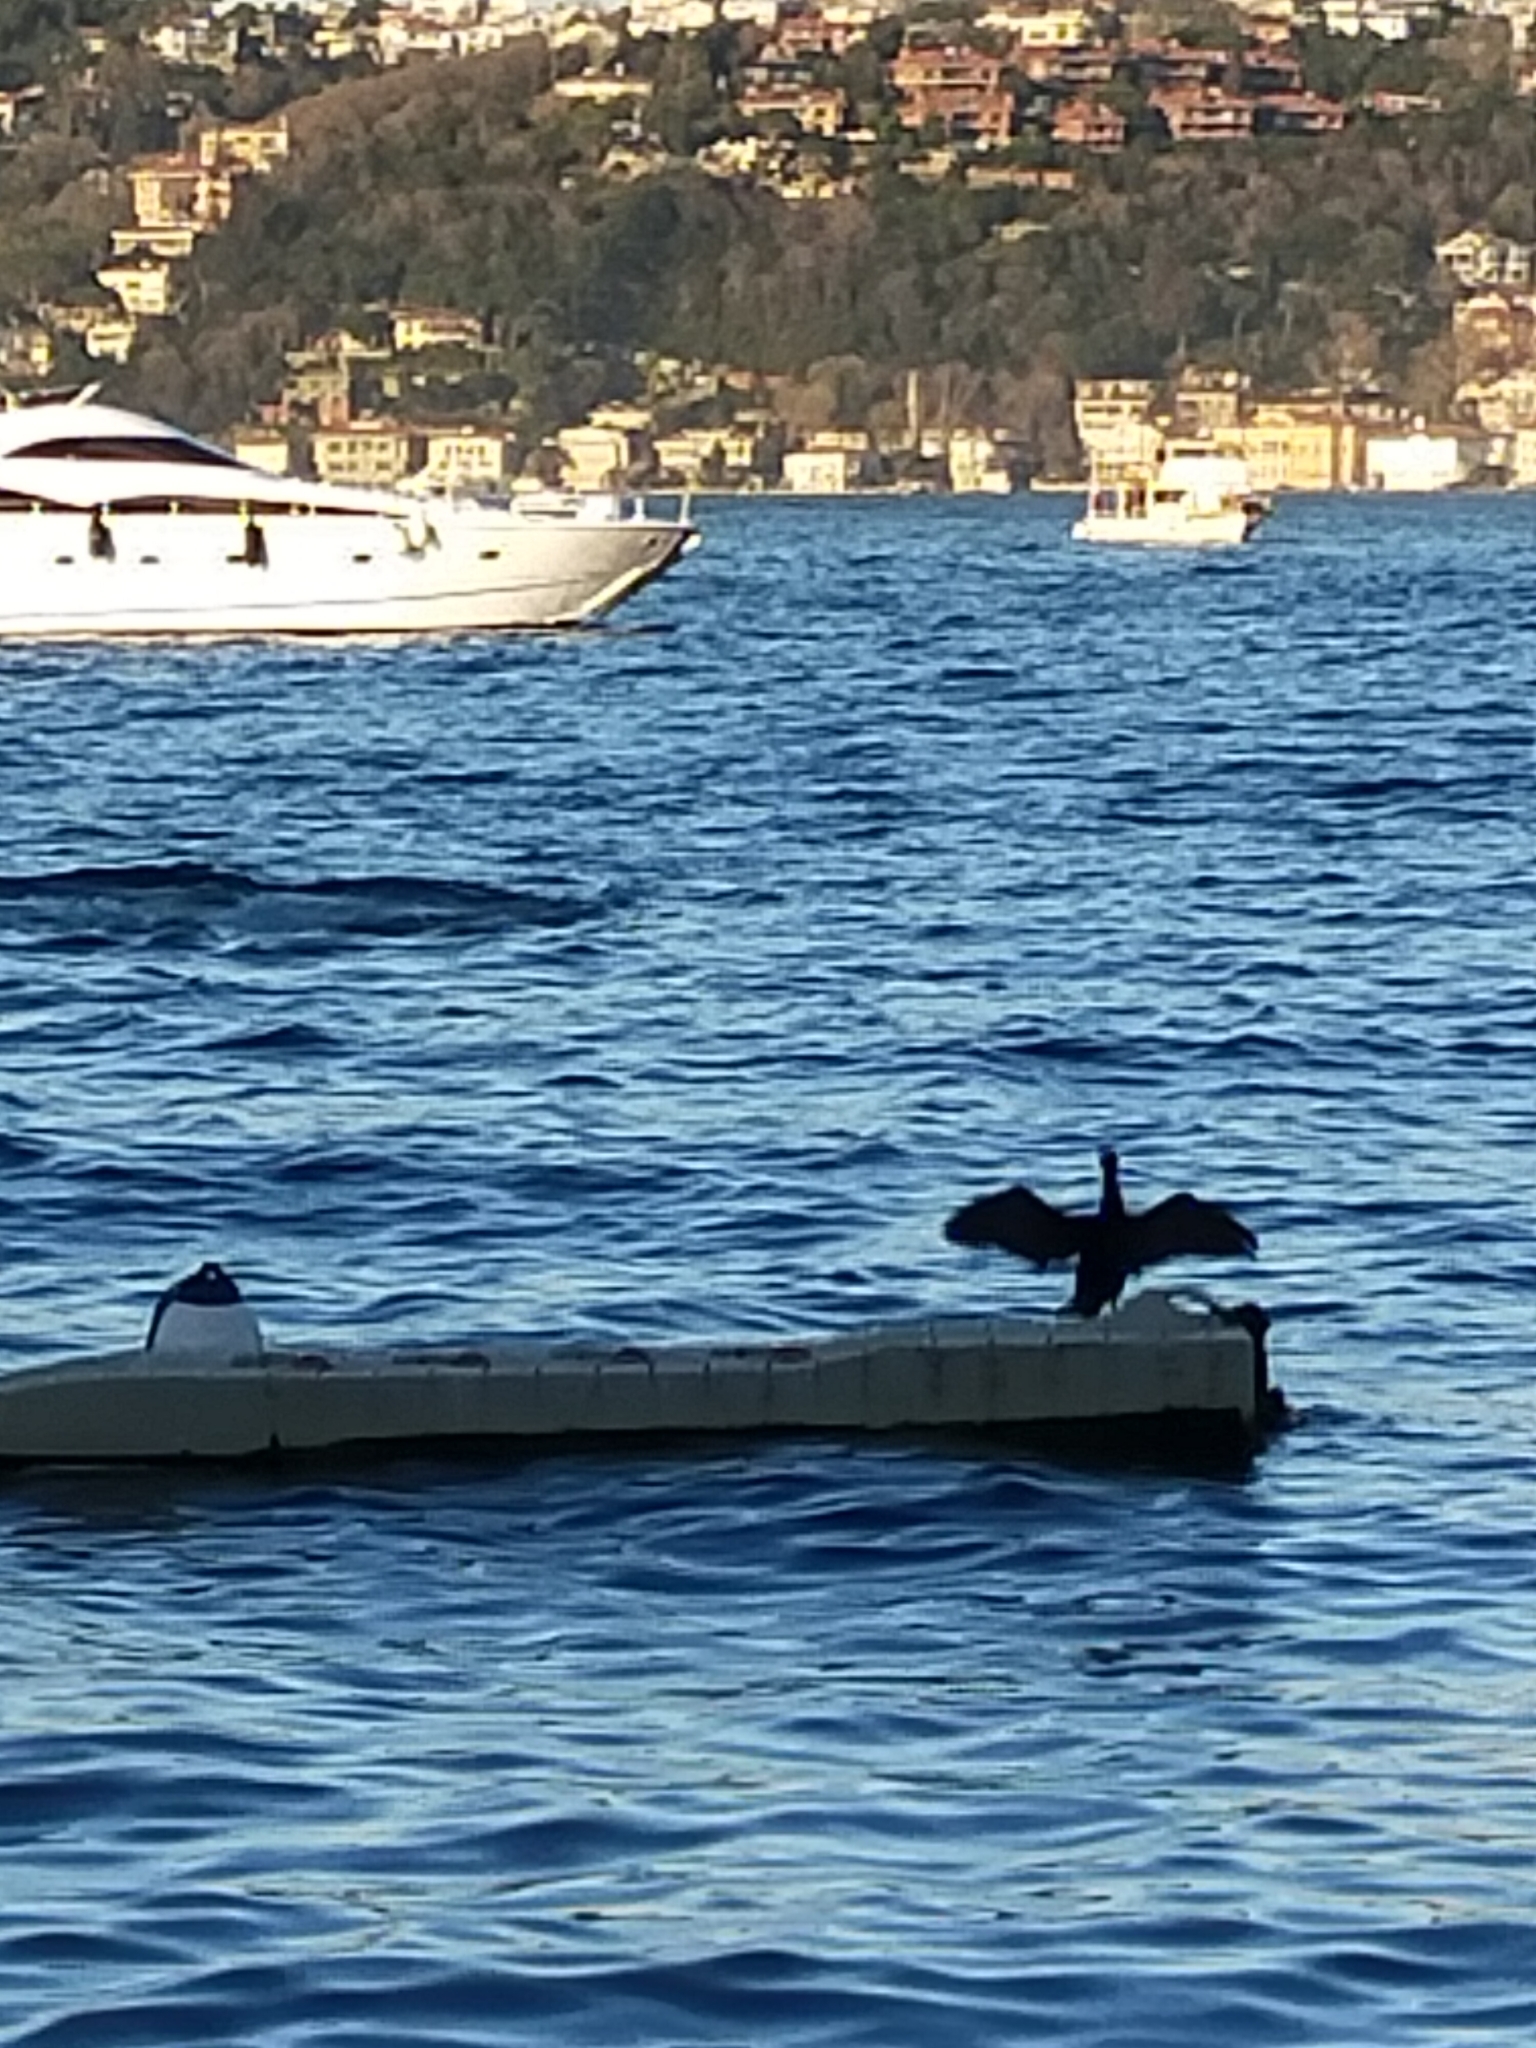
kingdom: Animalia
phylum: Chordata
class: Aves
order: Suliformes
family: Phalacrocoracidae
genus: Phalacrocorax
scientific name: Phalacrocorax carbo
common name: Great cormorant
